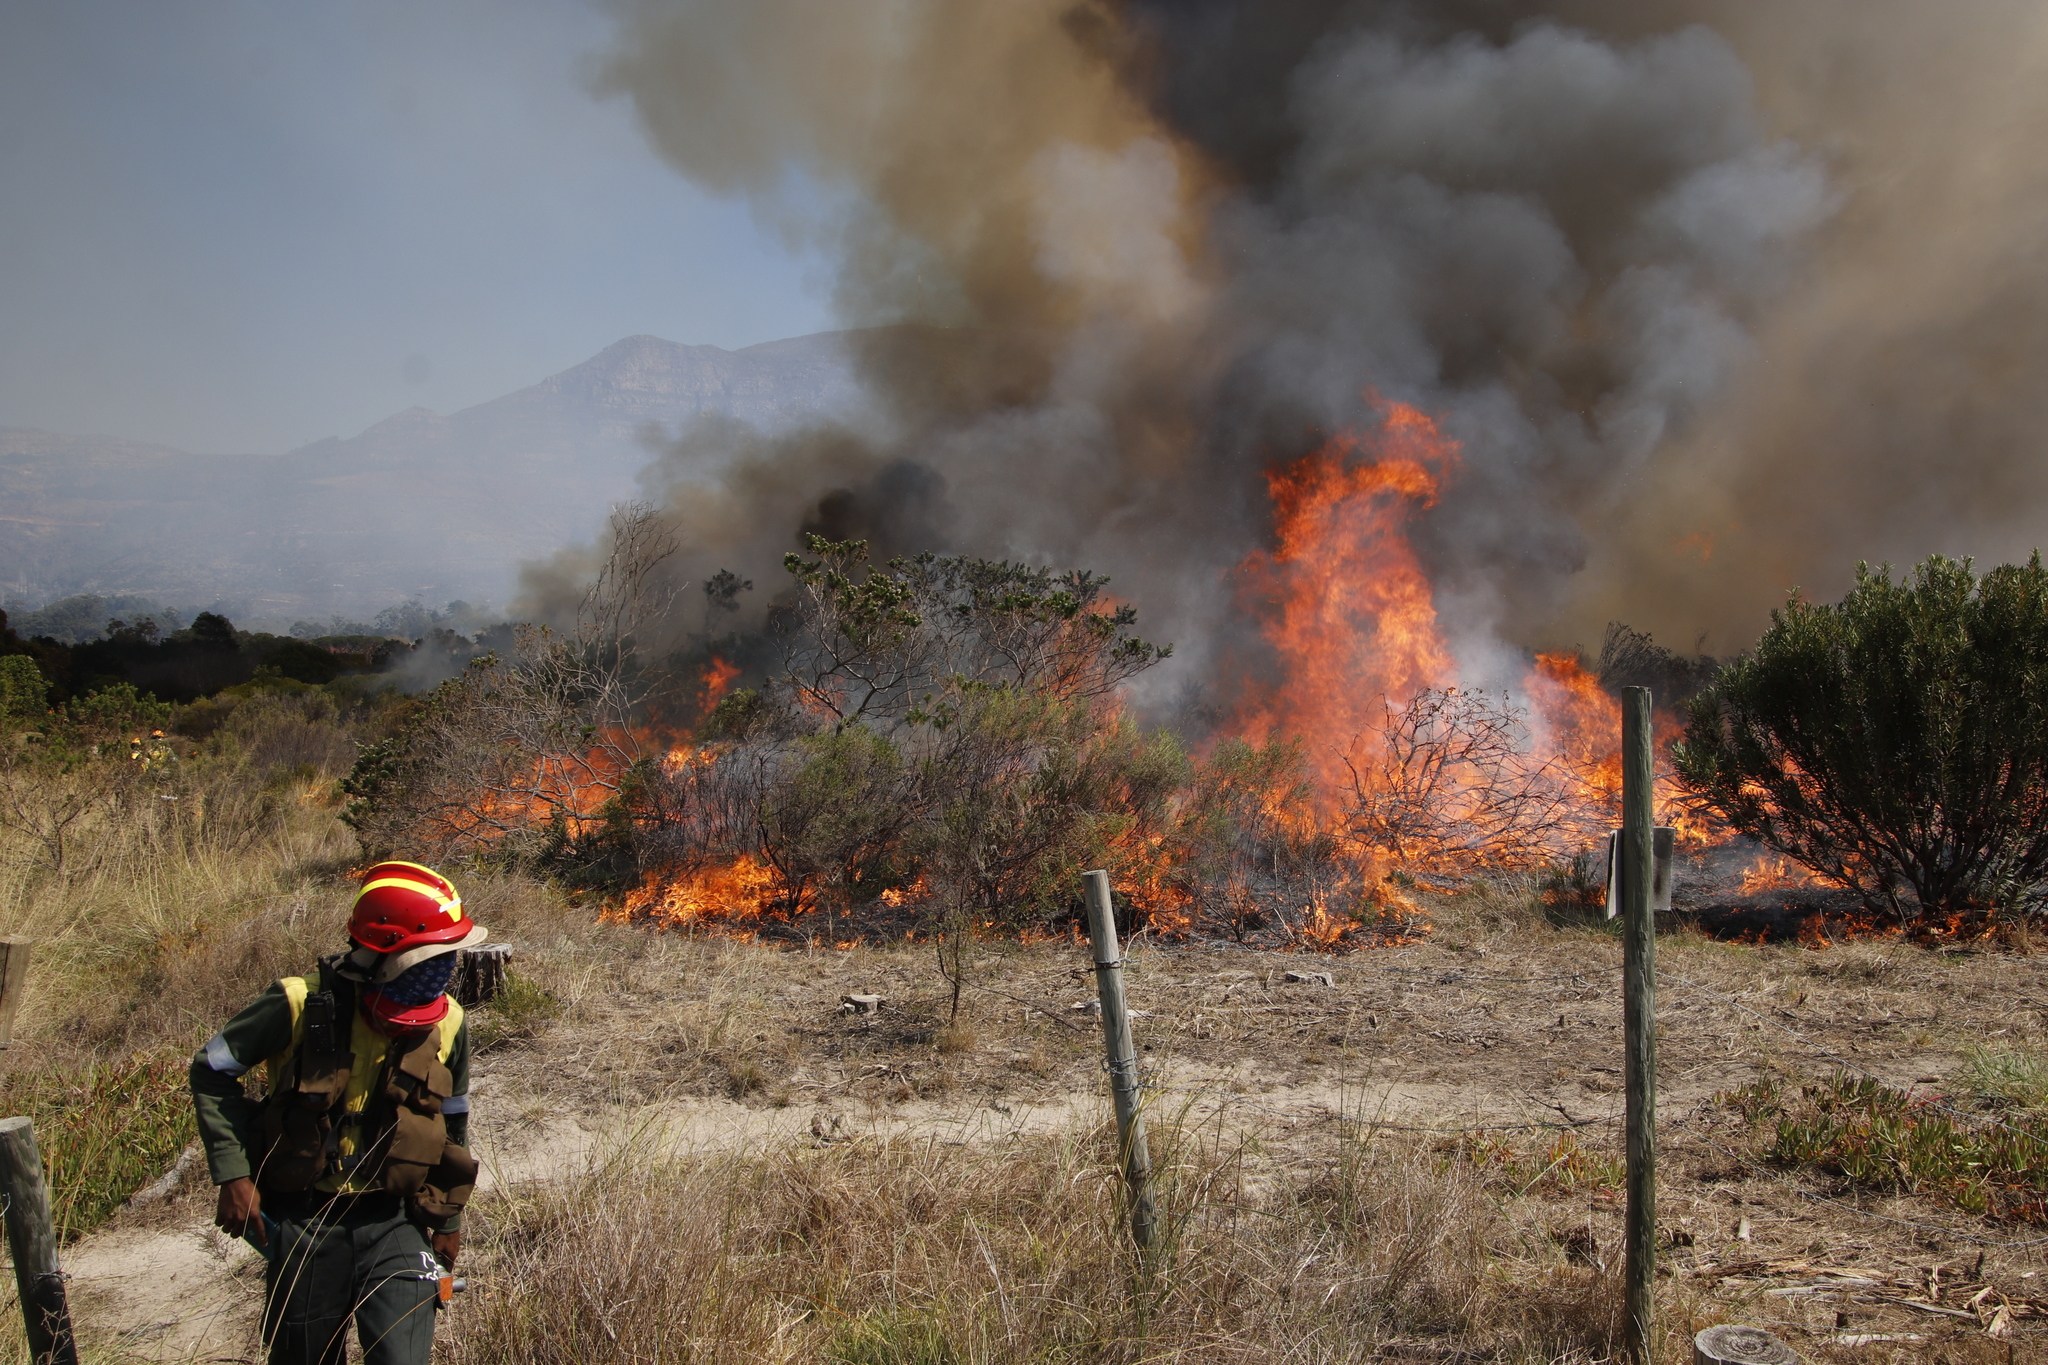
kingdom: Plantae
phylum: Tracheophyta
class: Magnoliopsida
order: Fabales
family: Fabaceae
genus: Psoralea
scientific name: Psoralea pinnata
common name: African scurfpea
